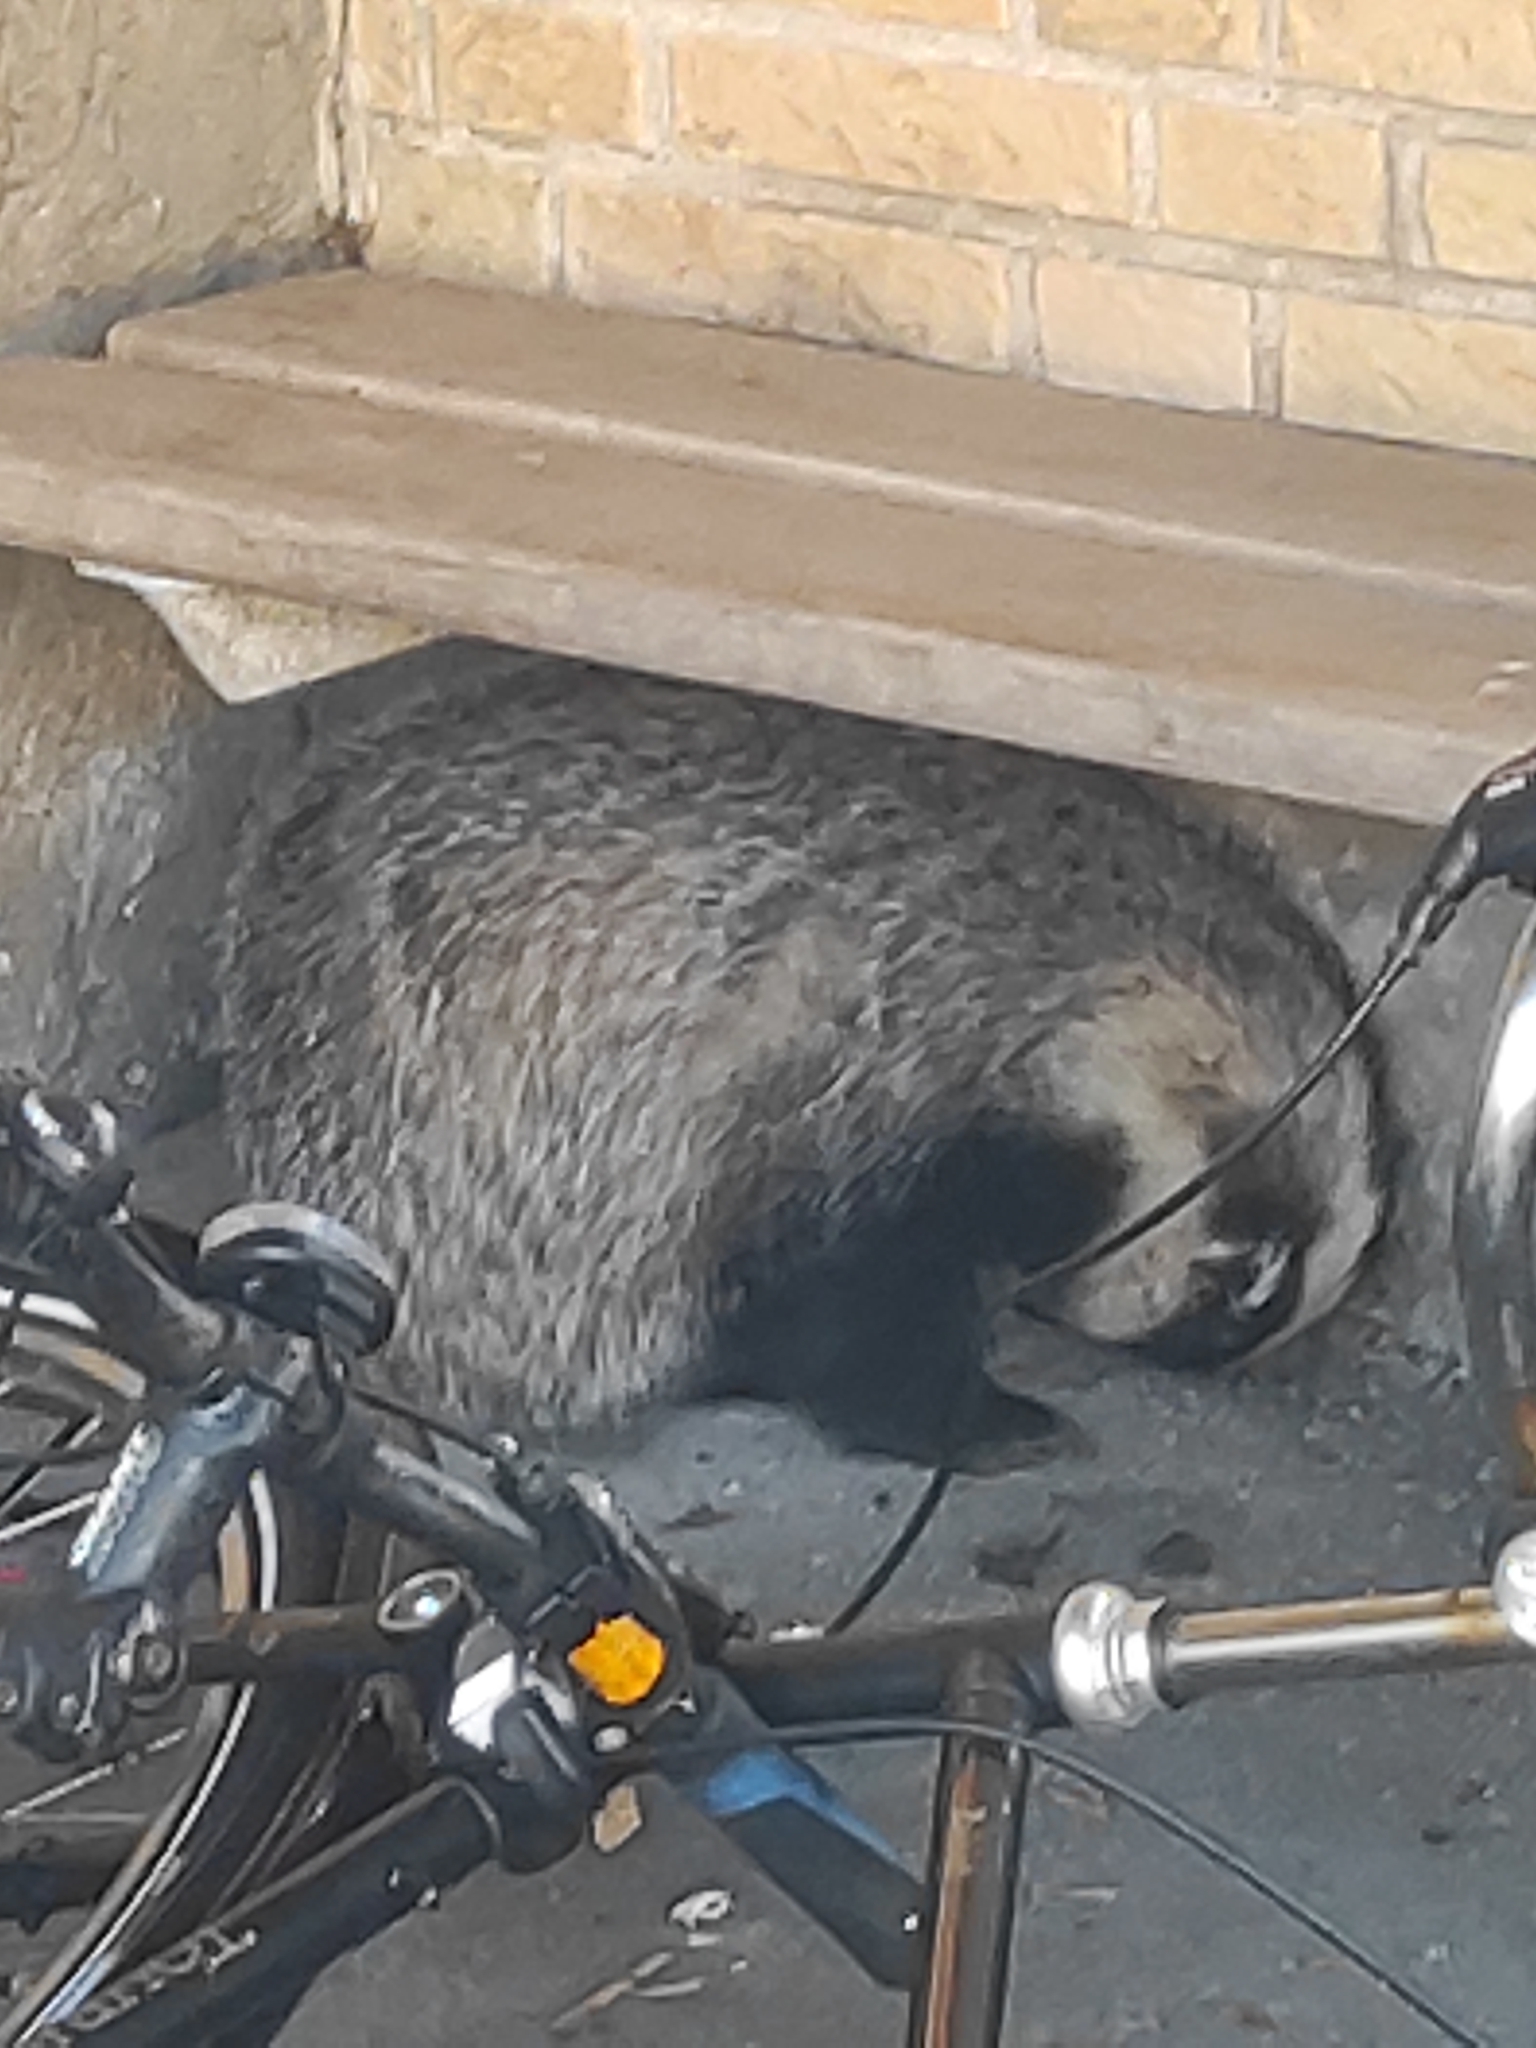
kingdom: Animalia
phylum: Chordata
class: Mammalia
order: Carnivora
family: Mustelidae
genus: Meles
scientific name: Meles meles
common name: Eurasian badger
